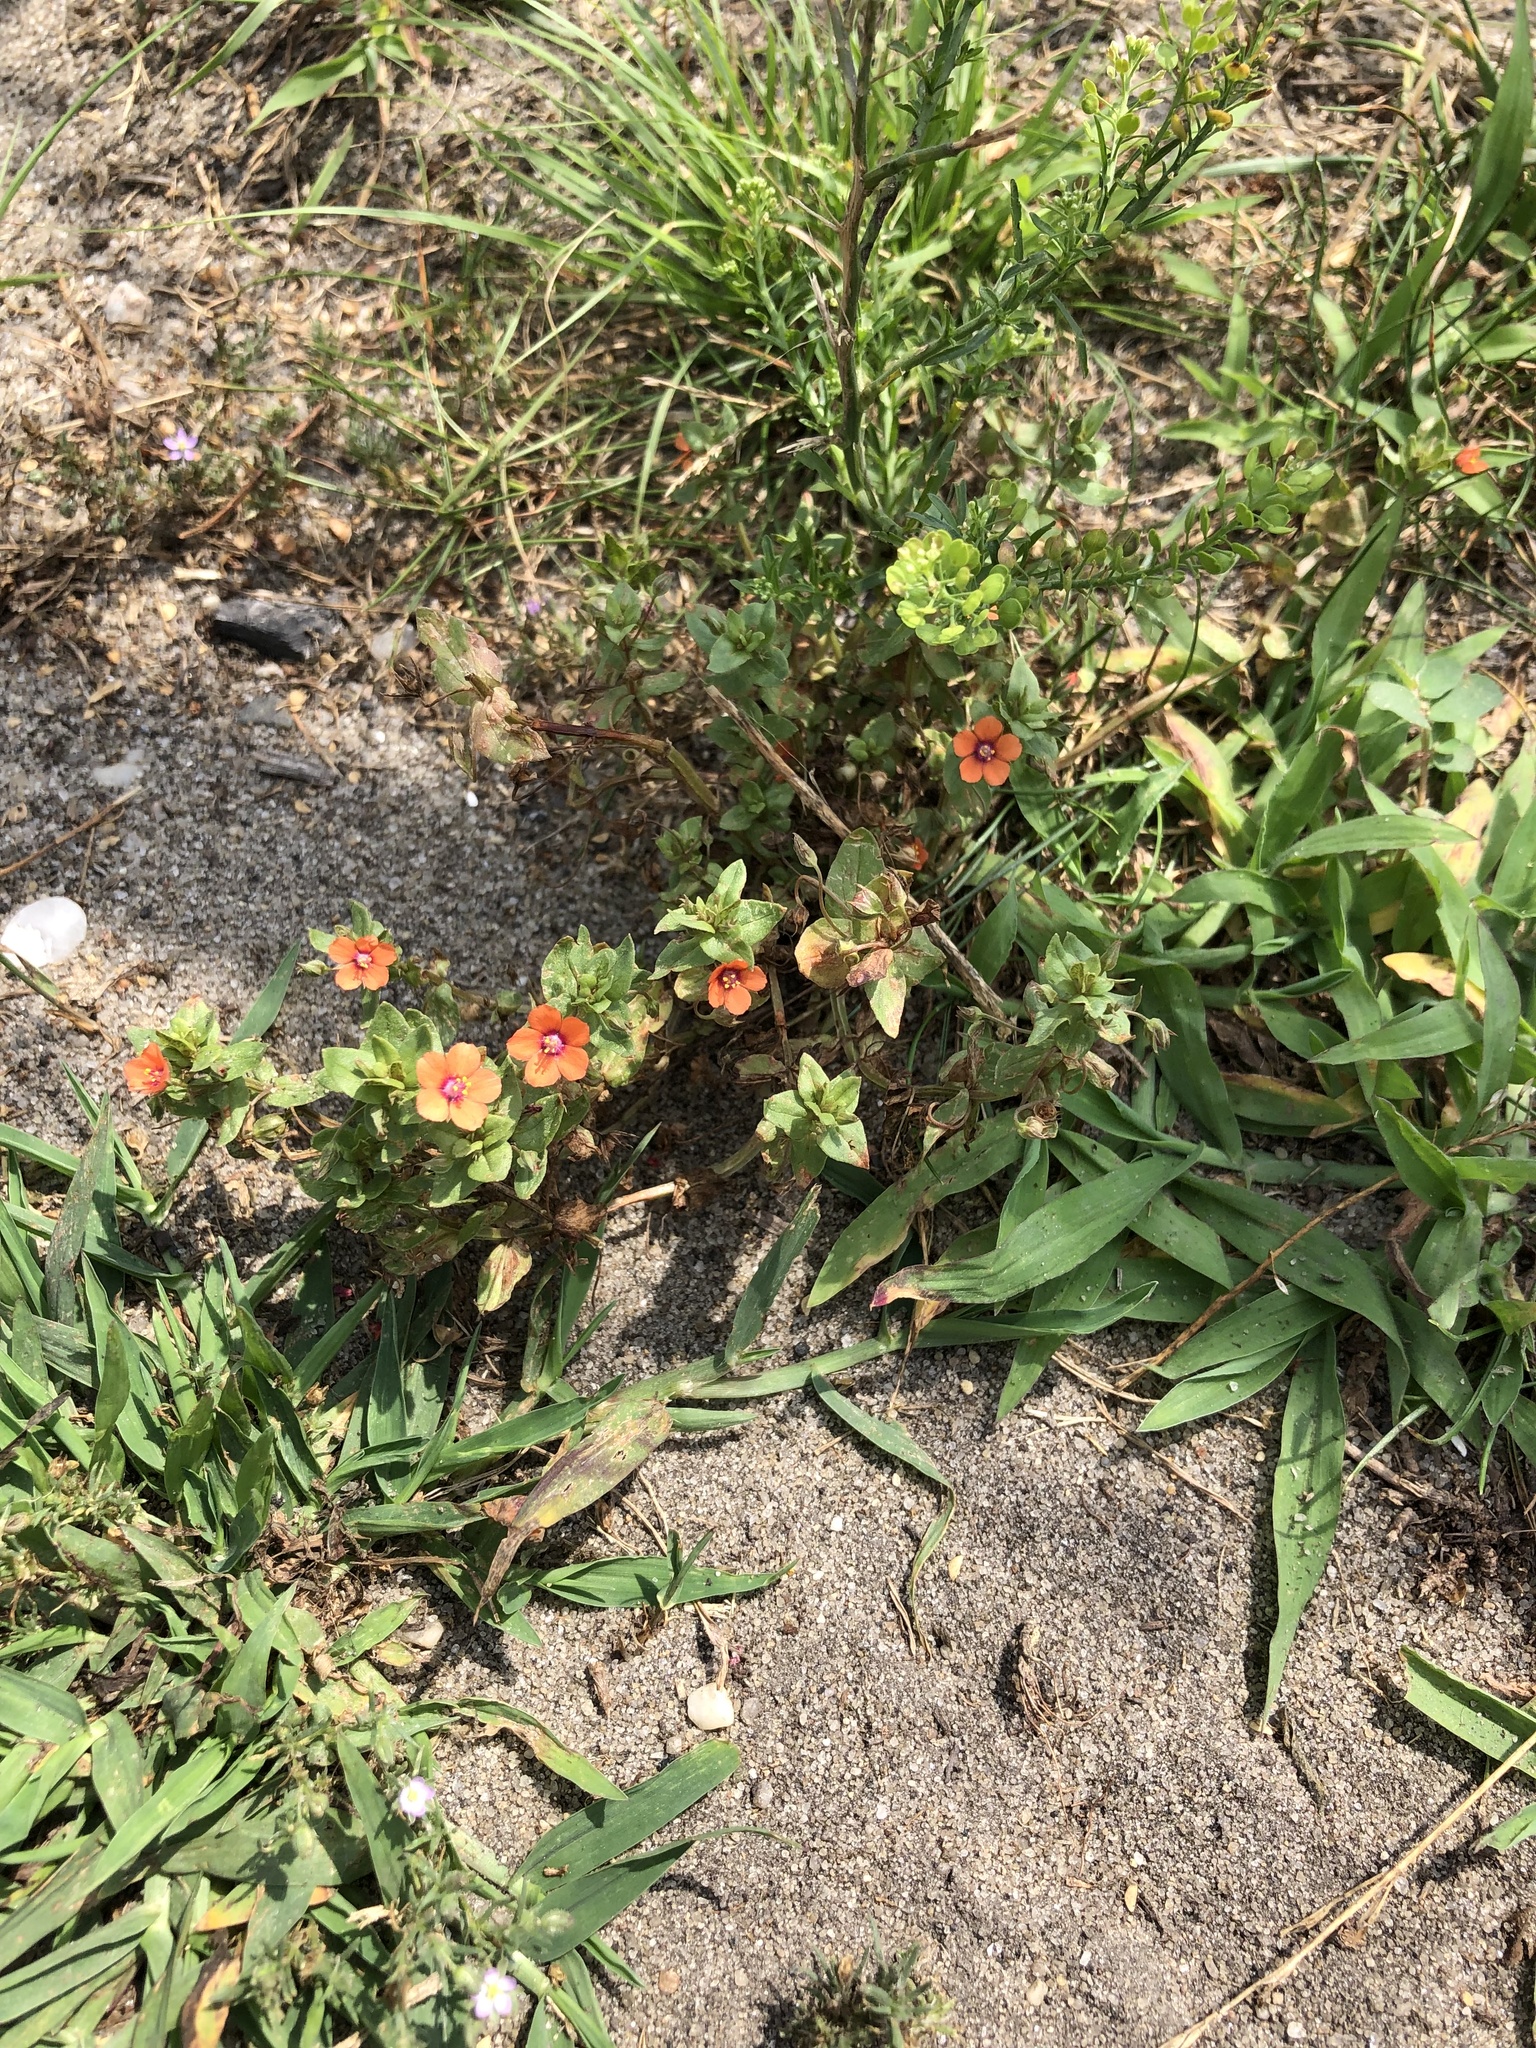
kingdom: Plantae
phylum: Tracheophyta
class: Magnoliopsida
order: Ericales
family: Primulaceae
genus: Lysimachia
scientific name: Lysimachia arvensis
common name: Scarlet pimpernel
